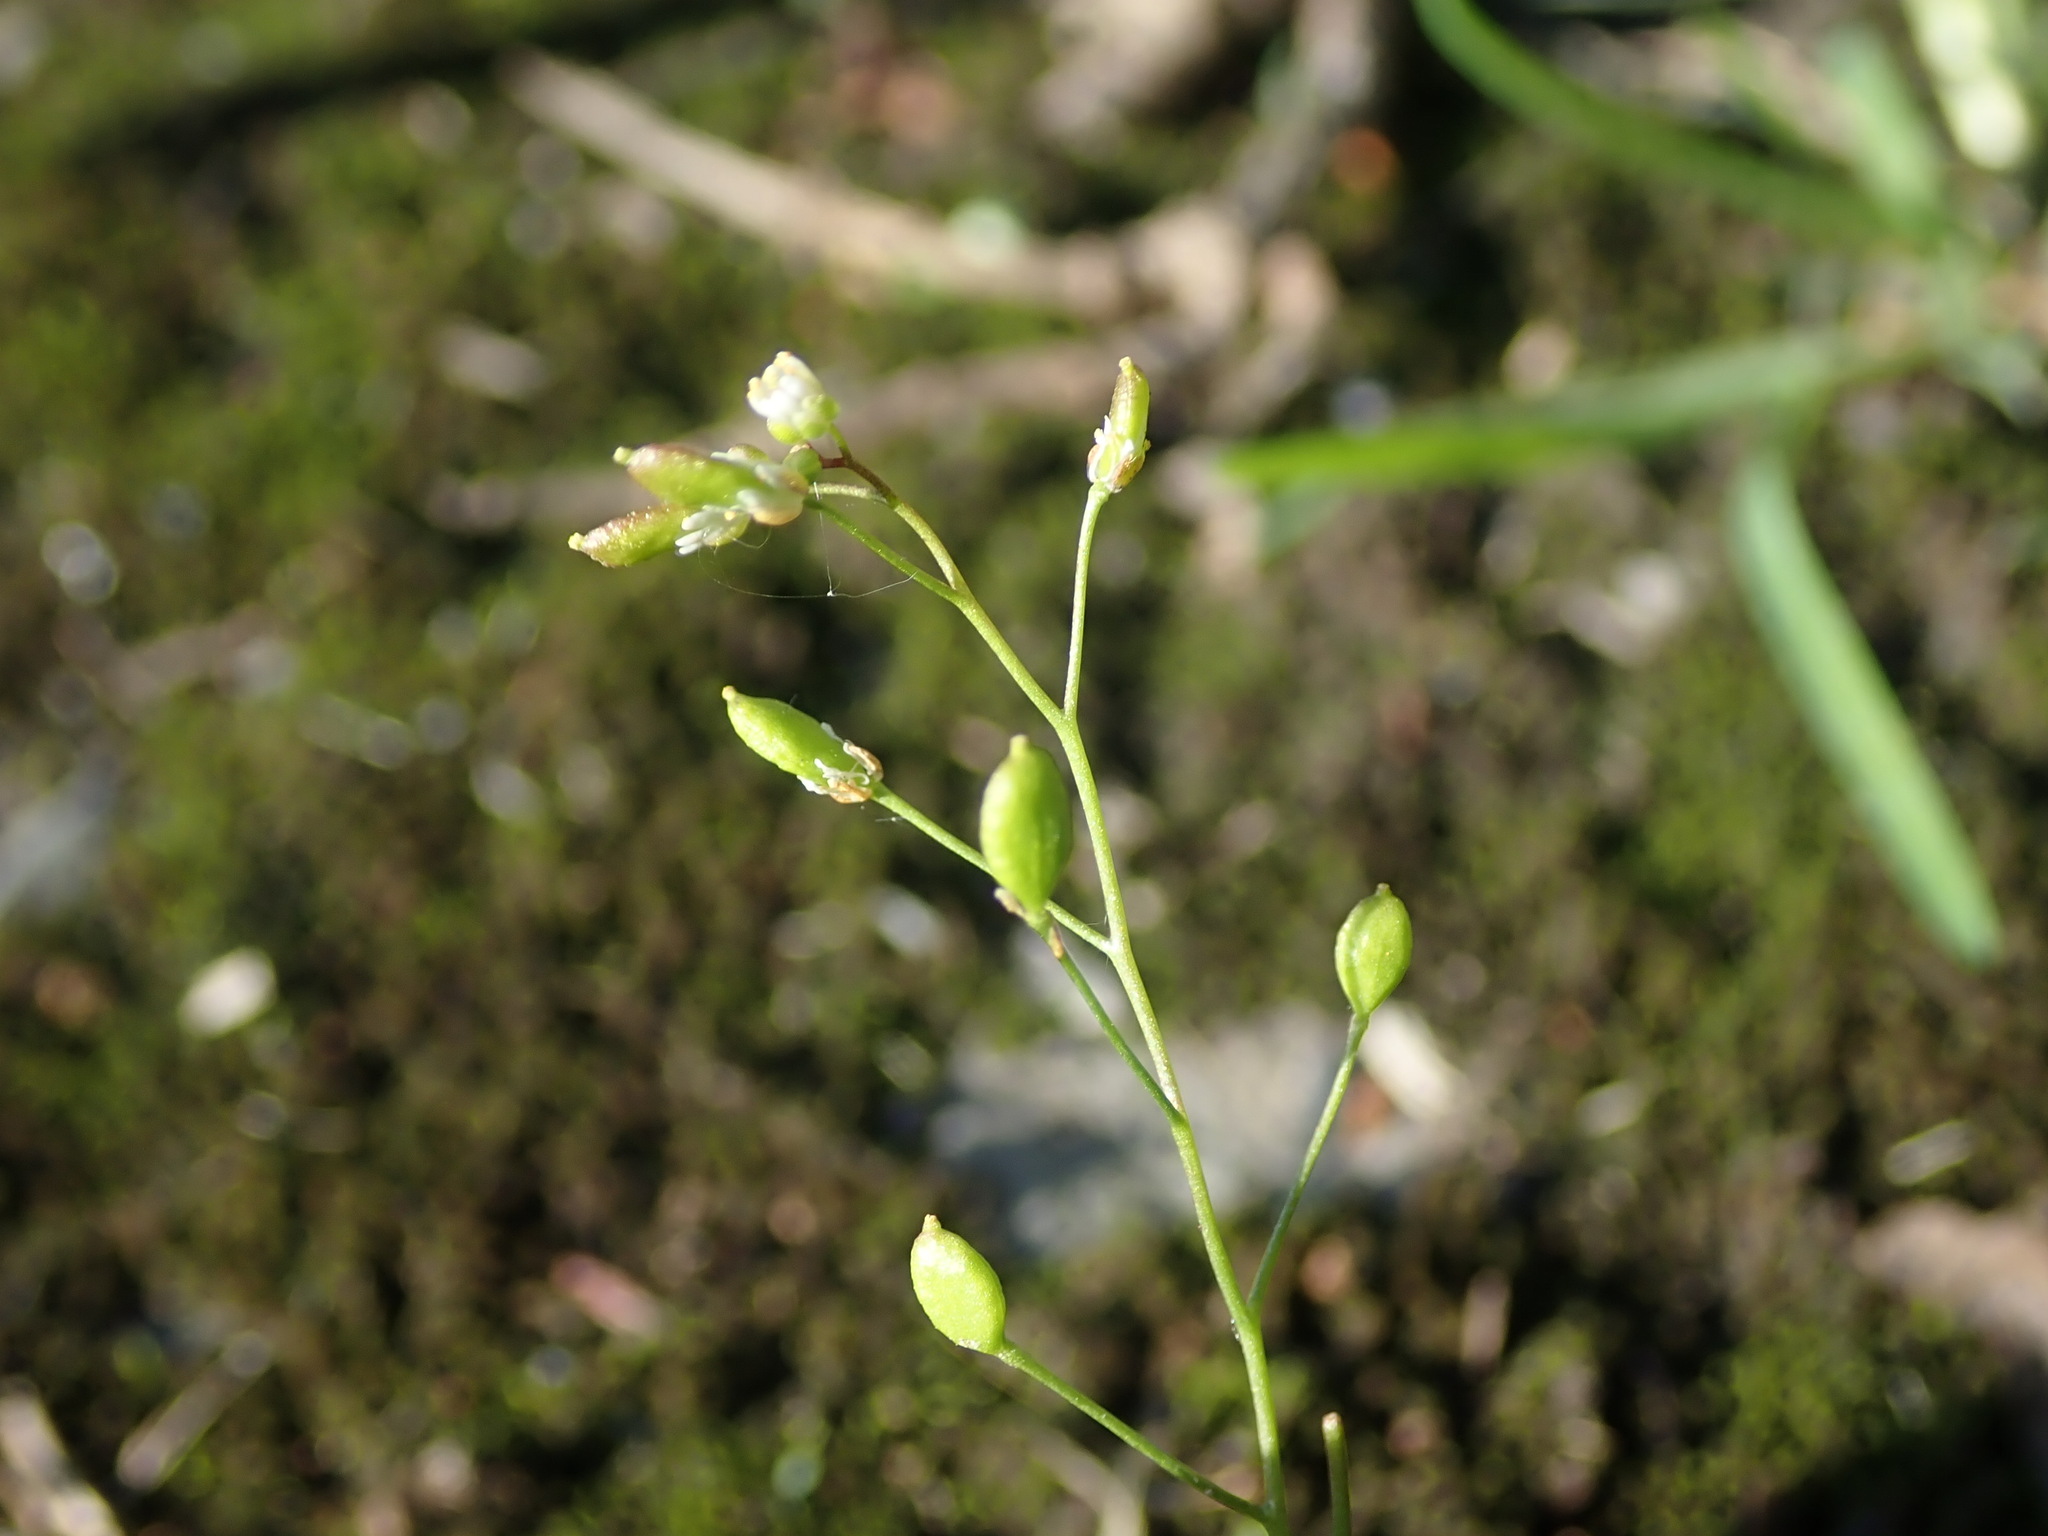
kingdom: Plantae
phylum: Tracheophyta
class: Magnoliopsida
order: Brassicales
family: Brassicaceae
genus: Draba
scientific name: Draba verna
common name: Spring draba
